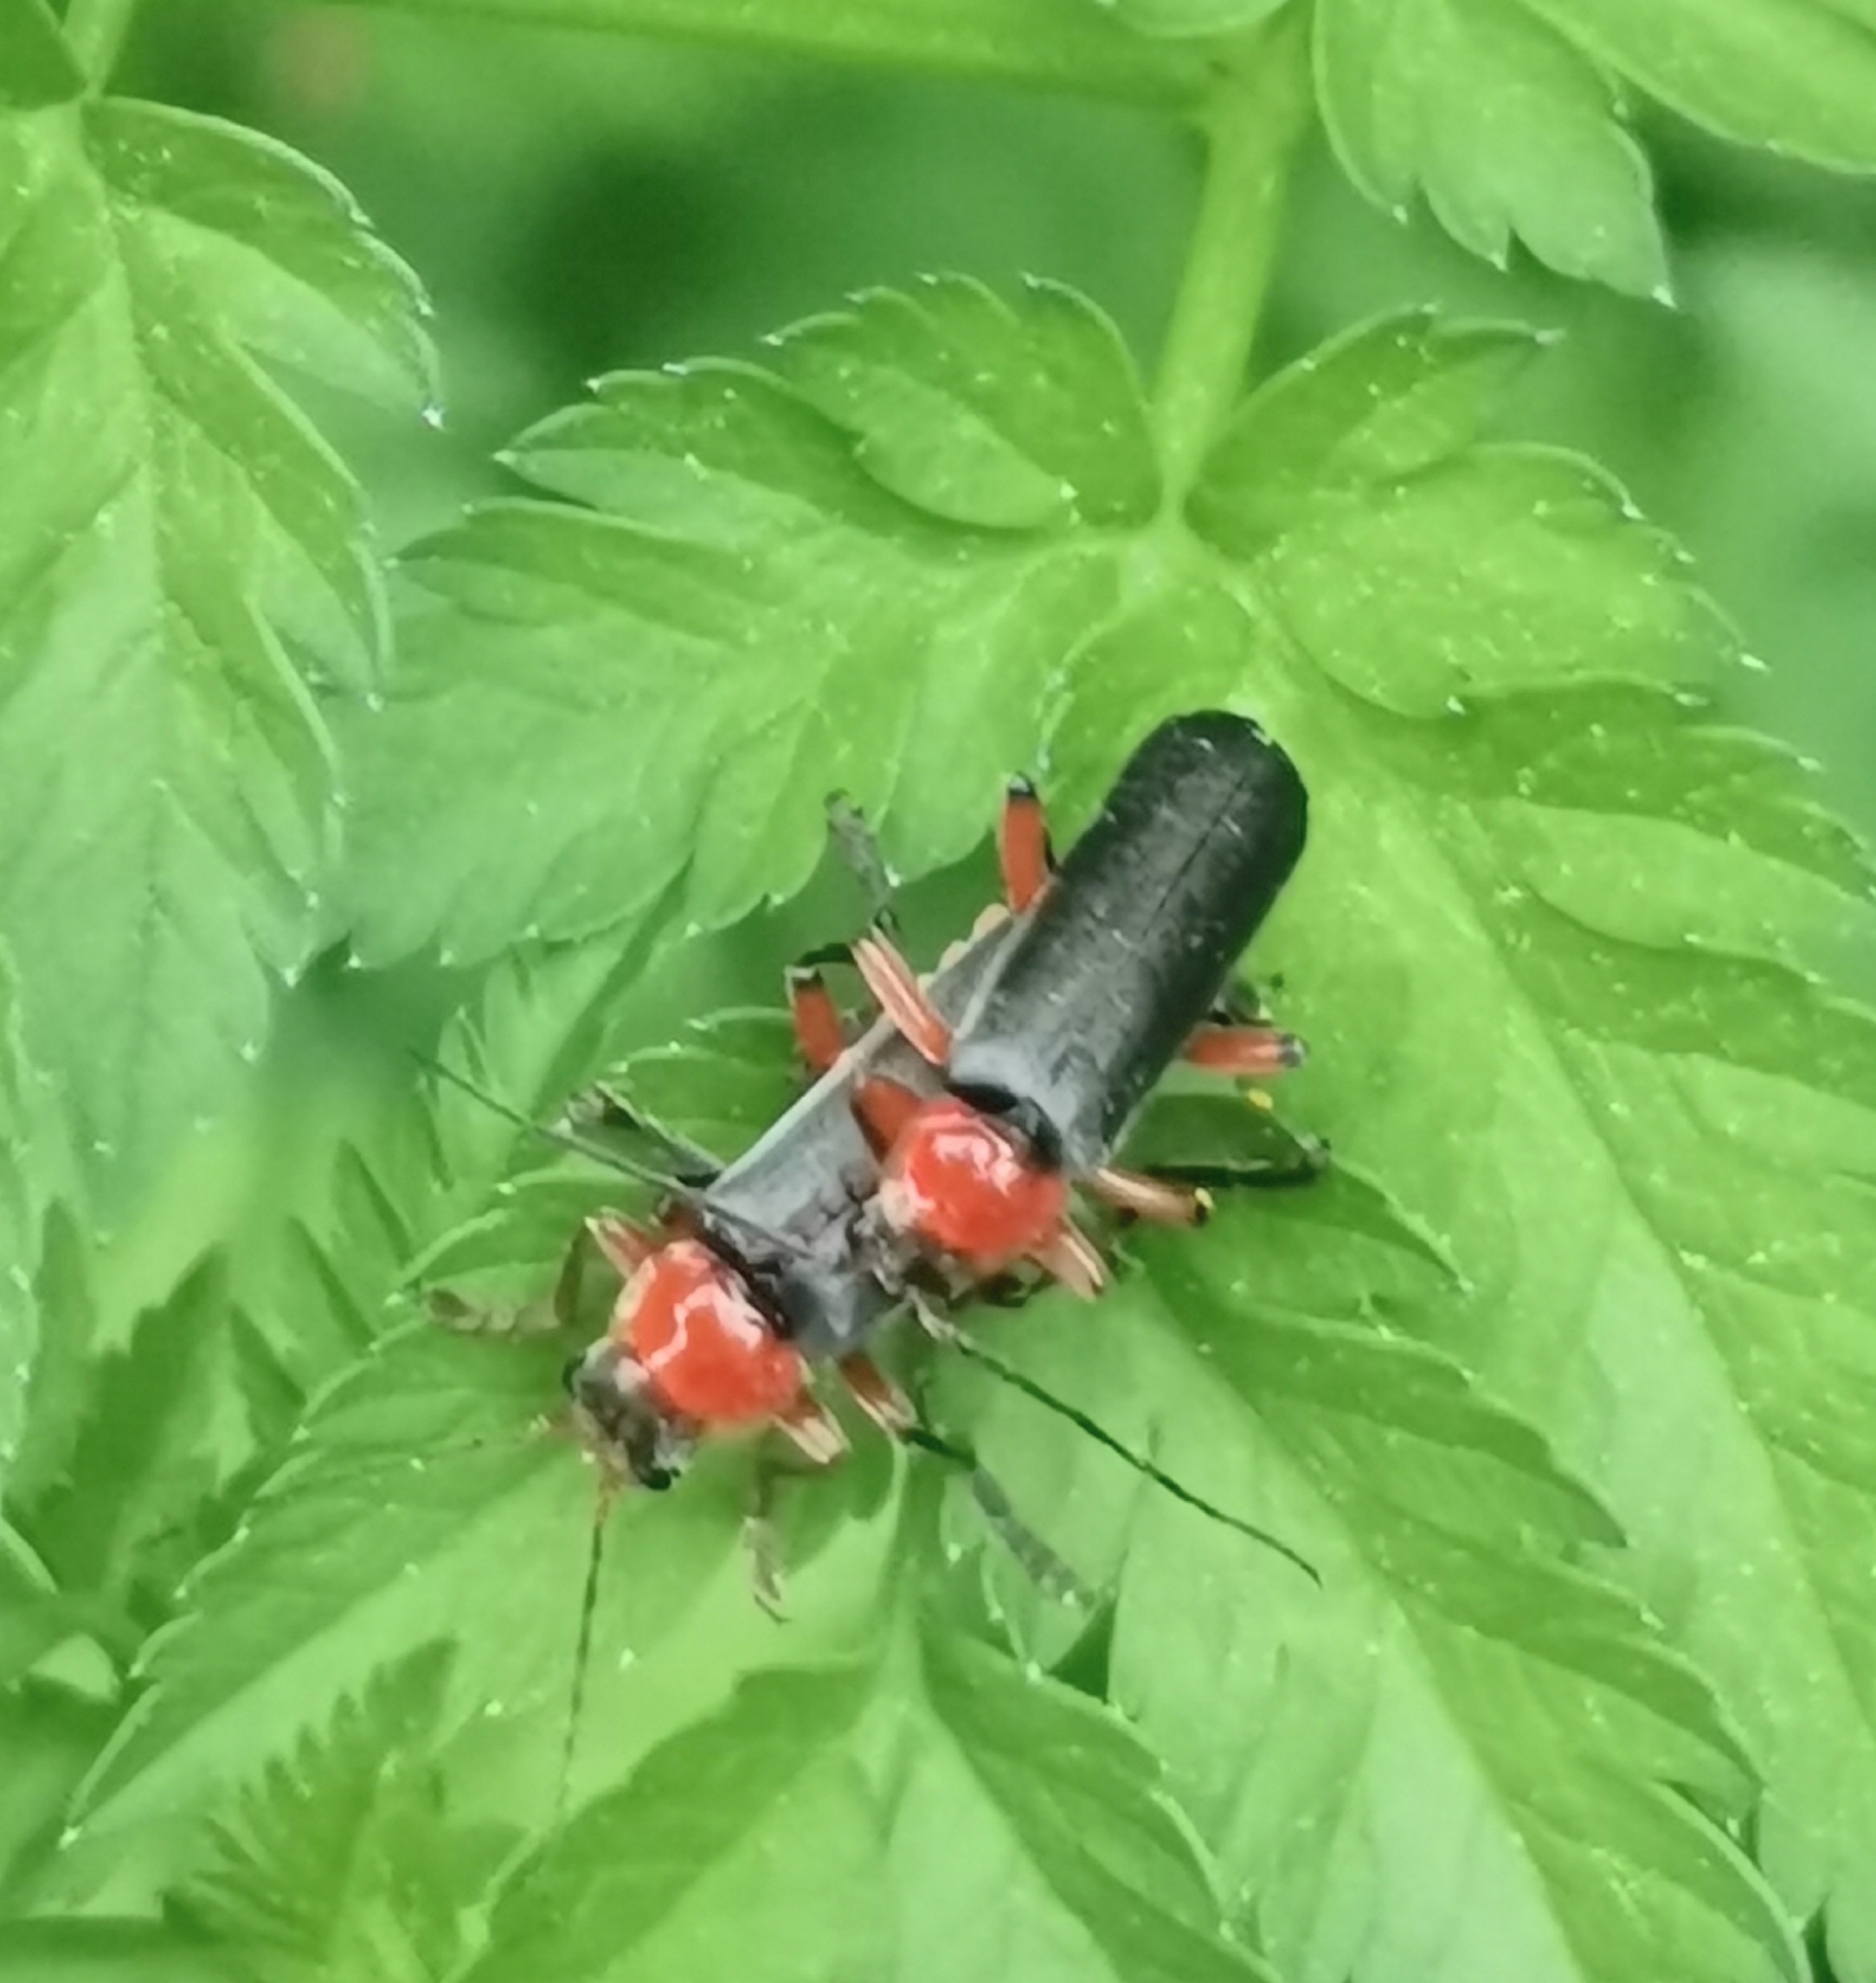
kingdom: Animalia
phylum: Arthropoda
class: Insecta
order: Coleoptera
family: Cantharidae
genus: Cantharis
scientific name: Cantharis pellucida
